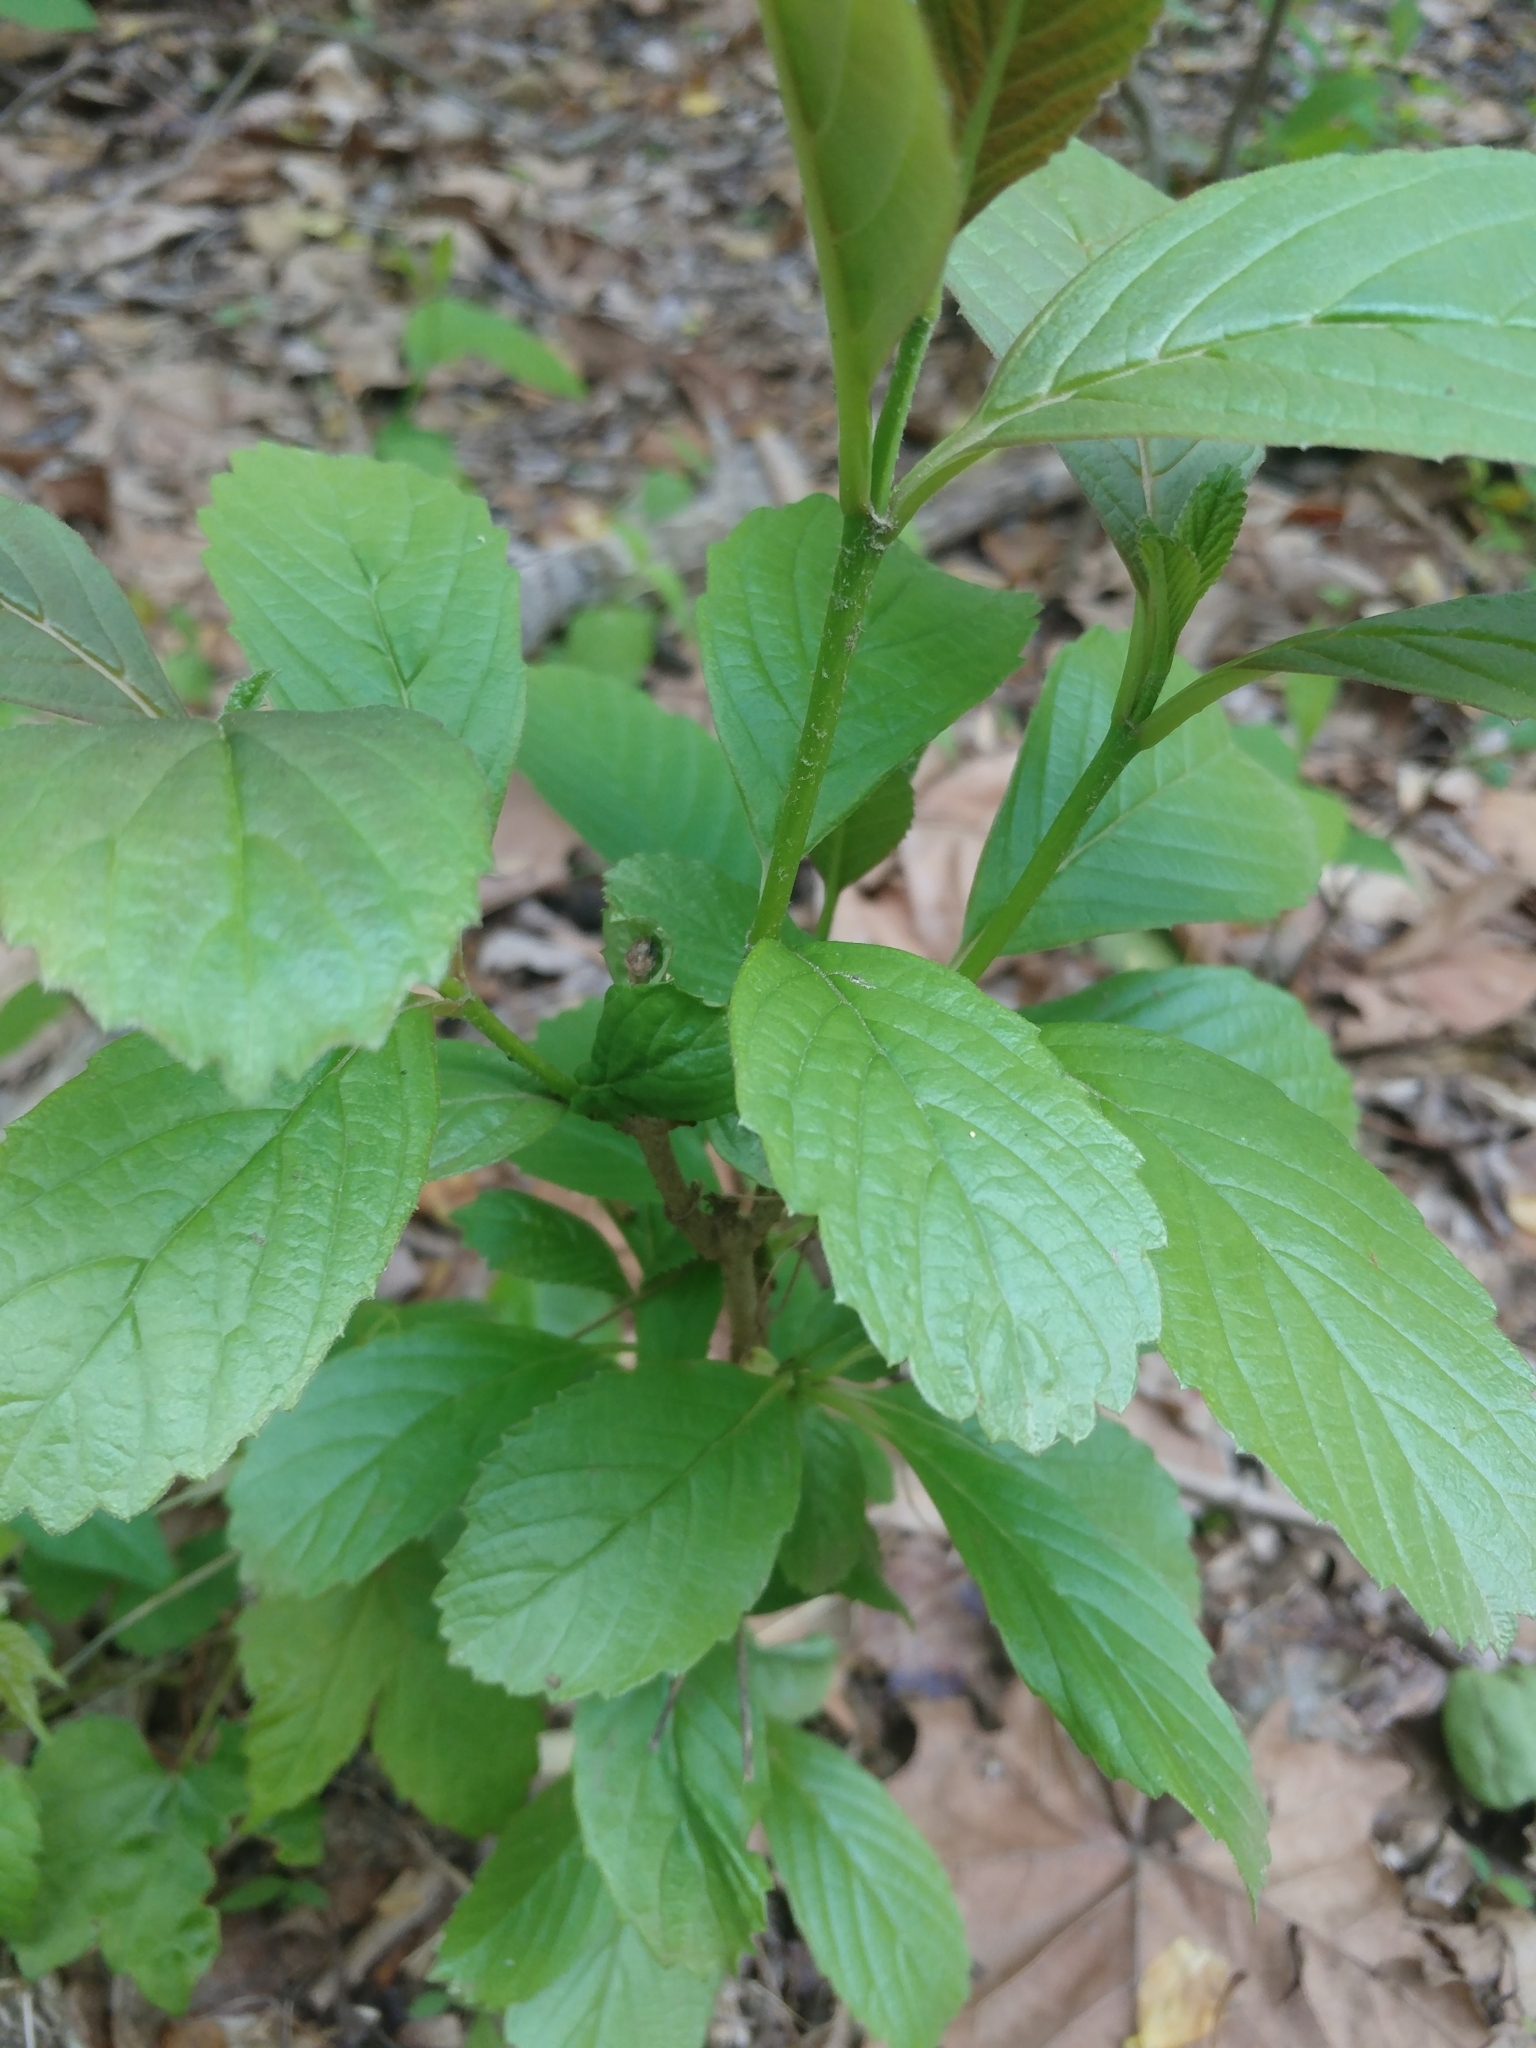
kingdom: Plantae
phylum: Tracheophyta
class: Magnoliopsida
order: Dipsacales
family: Viburnaceae
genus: Viburnum
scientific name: Viburnum sieboldii
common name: Siebold's arrowwood
